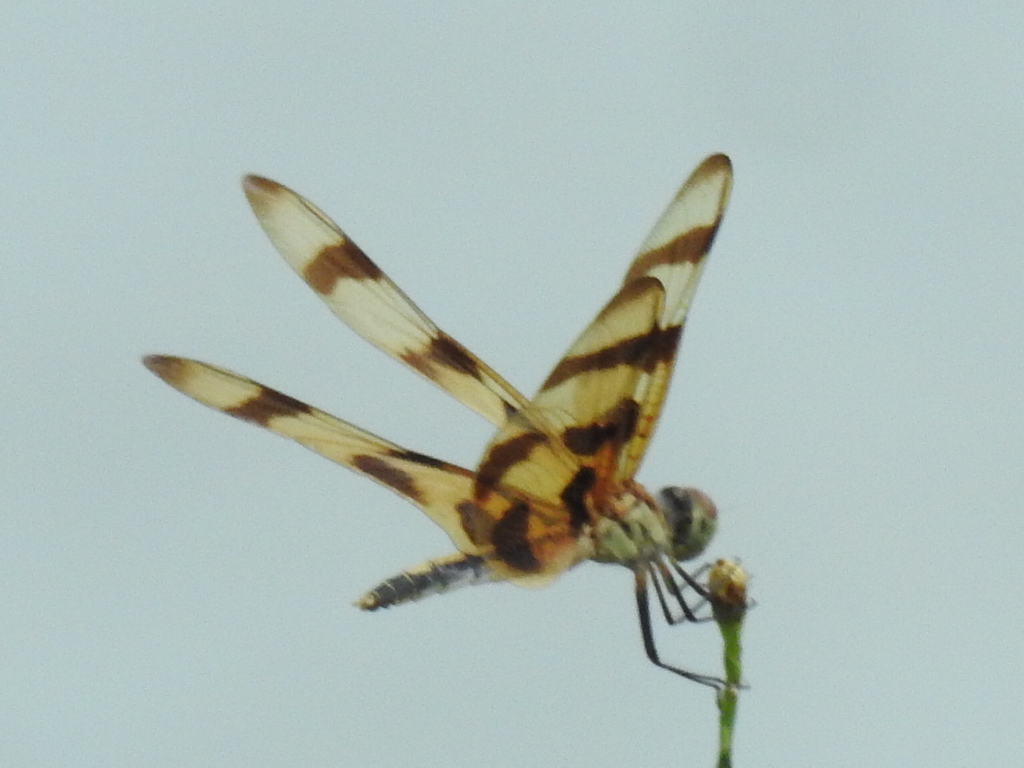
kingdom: Animalia
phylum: Arthropoda
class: Insecta
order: Odonata
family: Libellulidae
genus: Celithemis
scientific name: Celithemis eponina
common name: Halloween pennant
